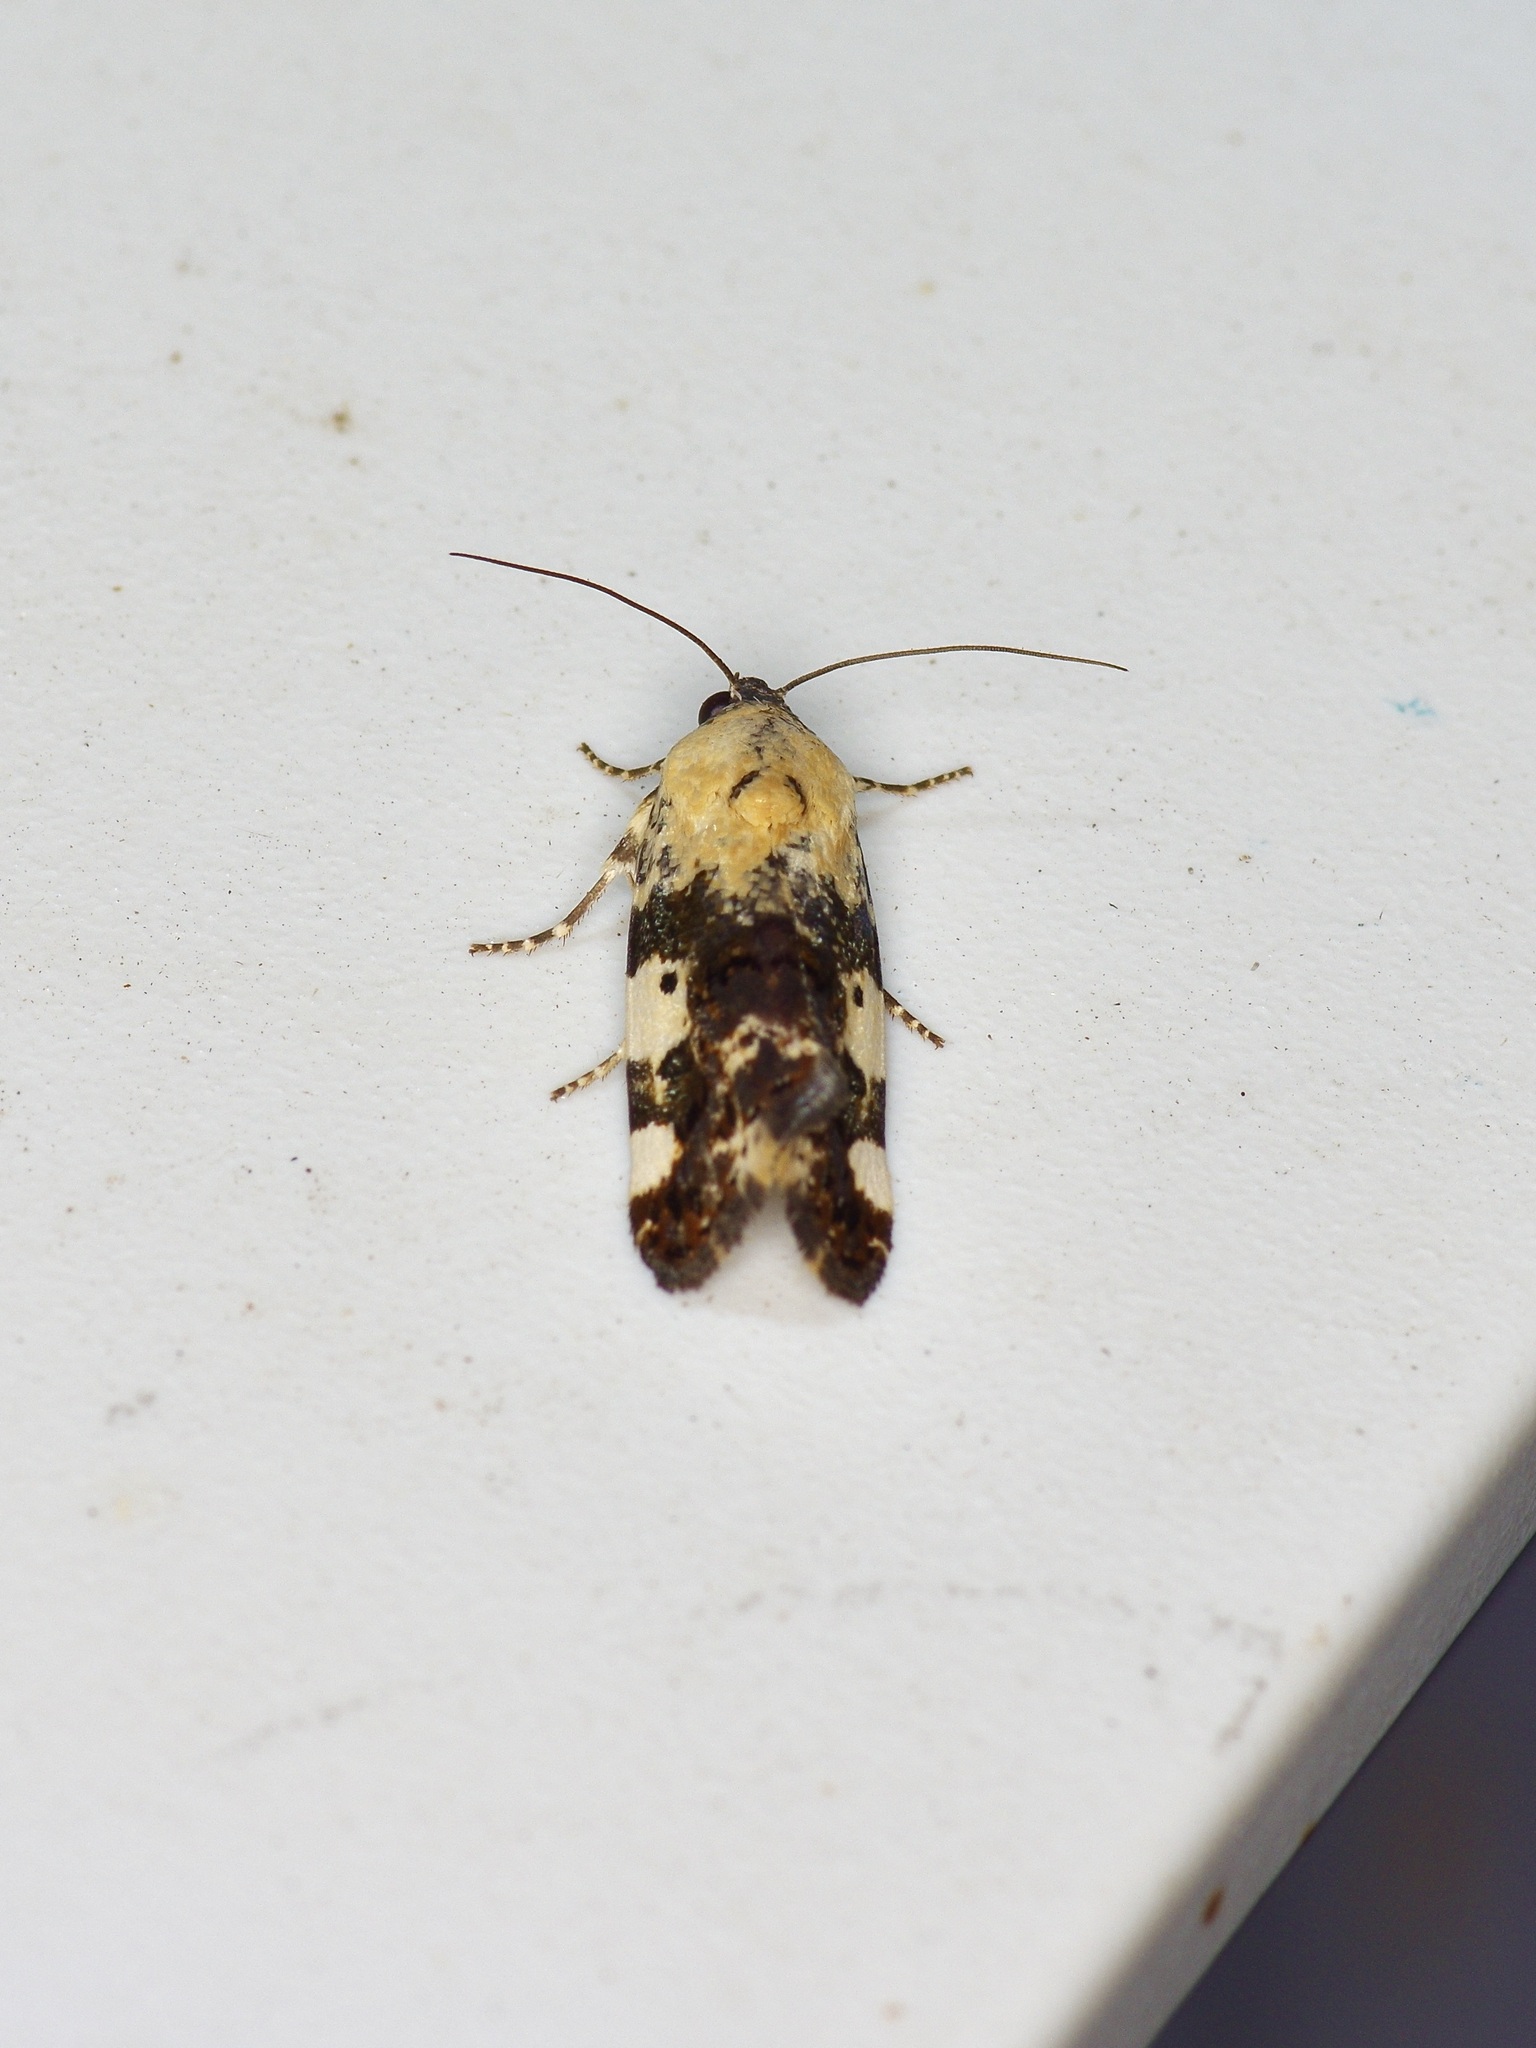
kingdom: Animalia
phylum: Arthropoda
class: Insecta
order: Lepidoptera
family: Noctuidae
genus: Acontia
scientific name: Acontia aprica
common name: Nun
